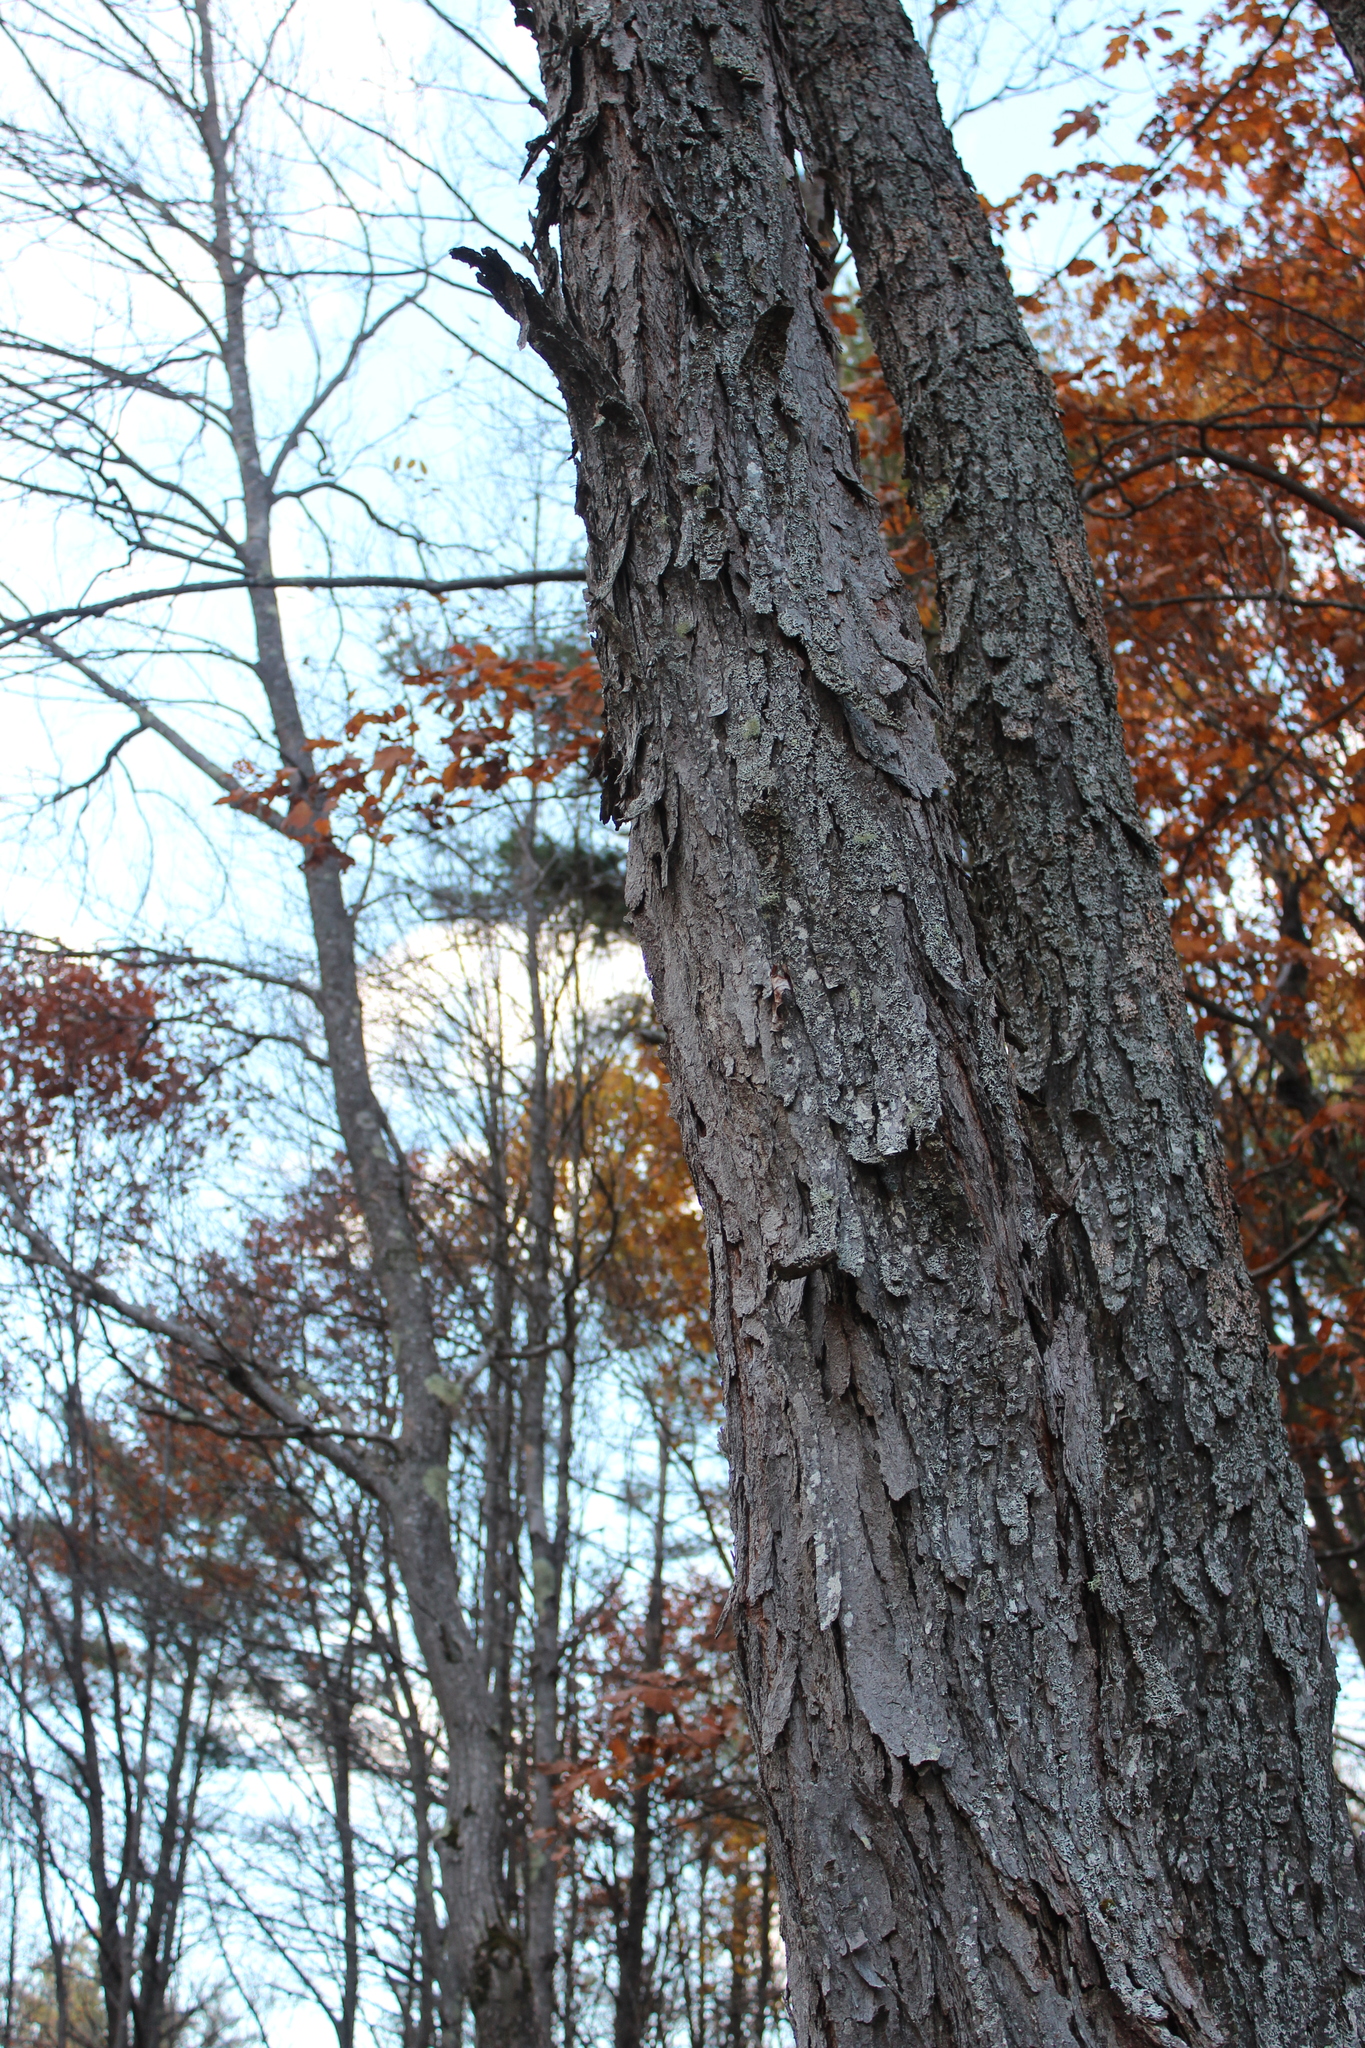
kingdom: Plantae
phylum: Tracheophyta
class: Magnoliopsida
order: Sapindales
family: Sapindaceae
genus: Acer
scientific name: Acer rubrum
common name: Red maple
